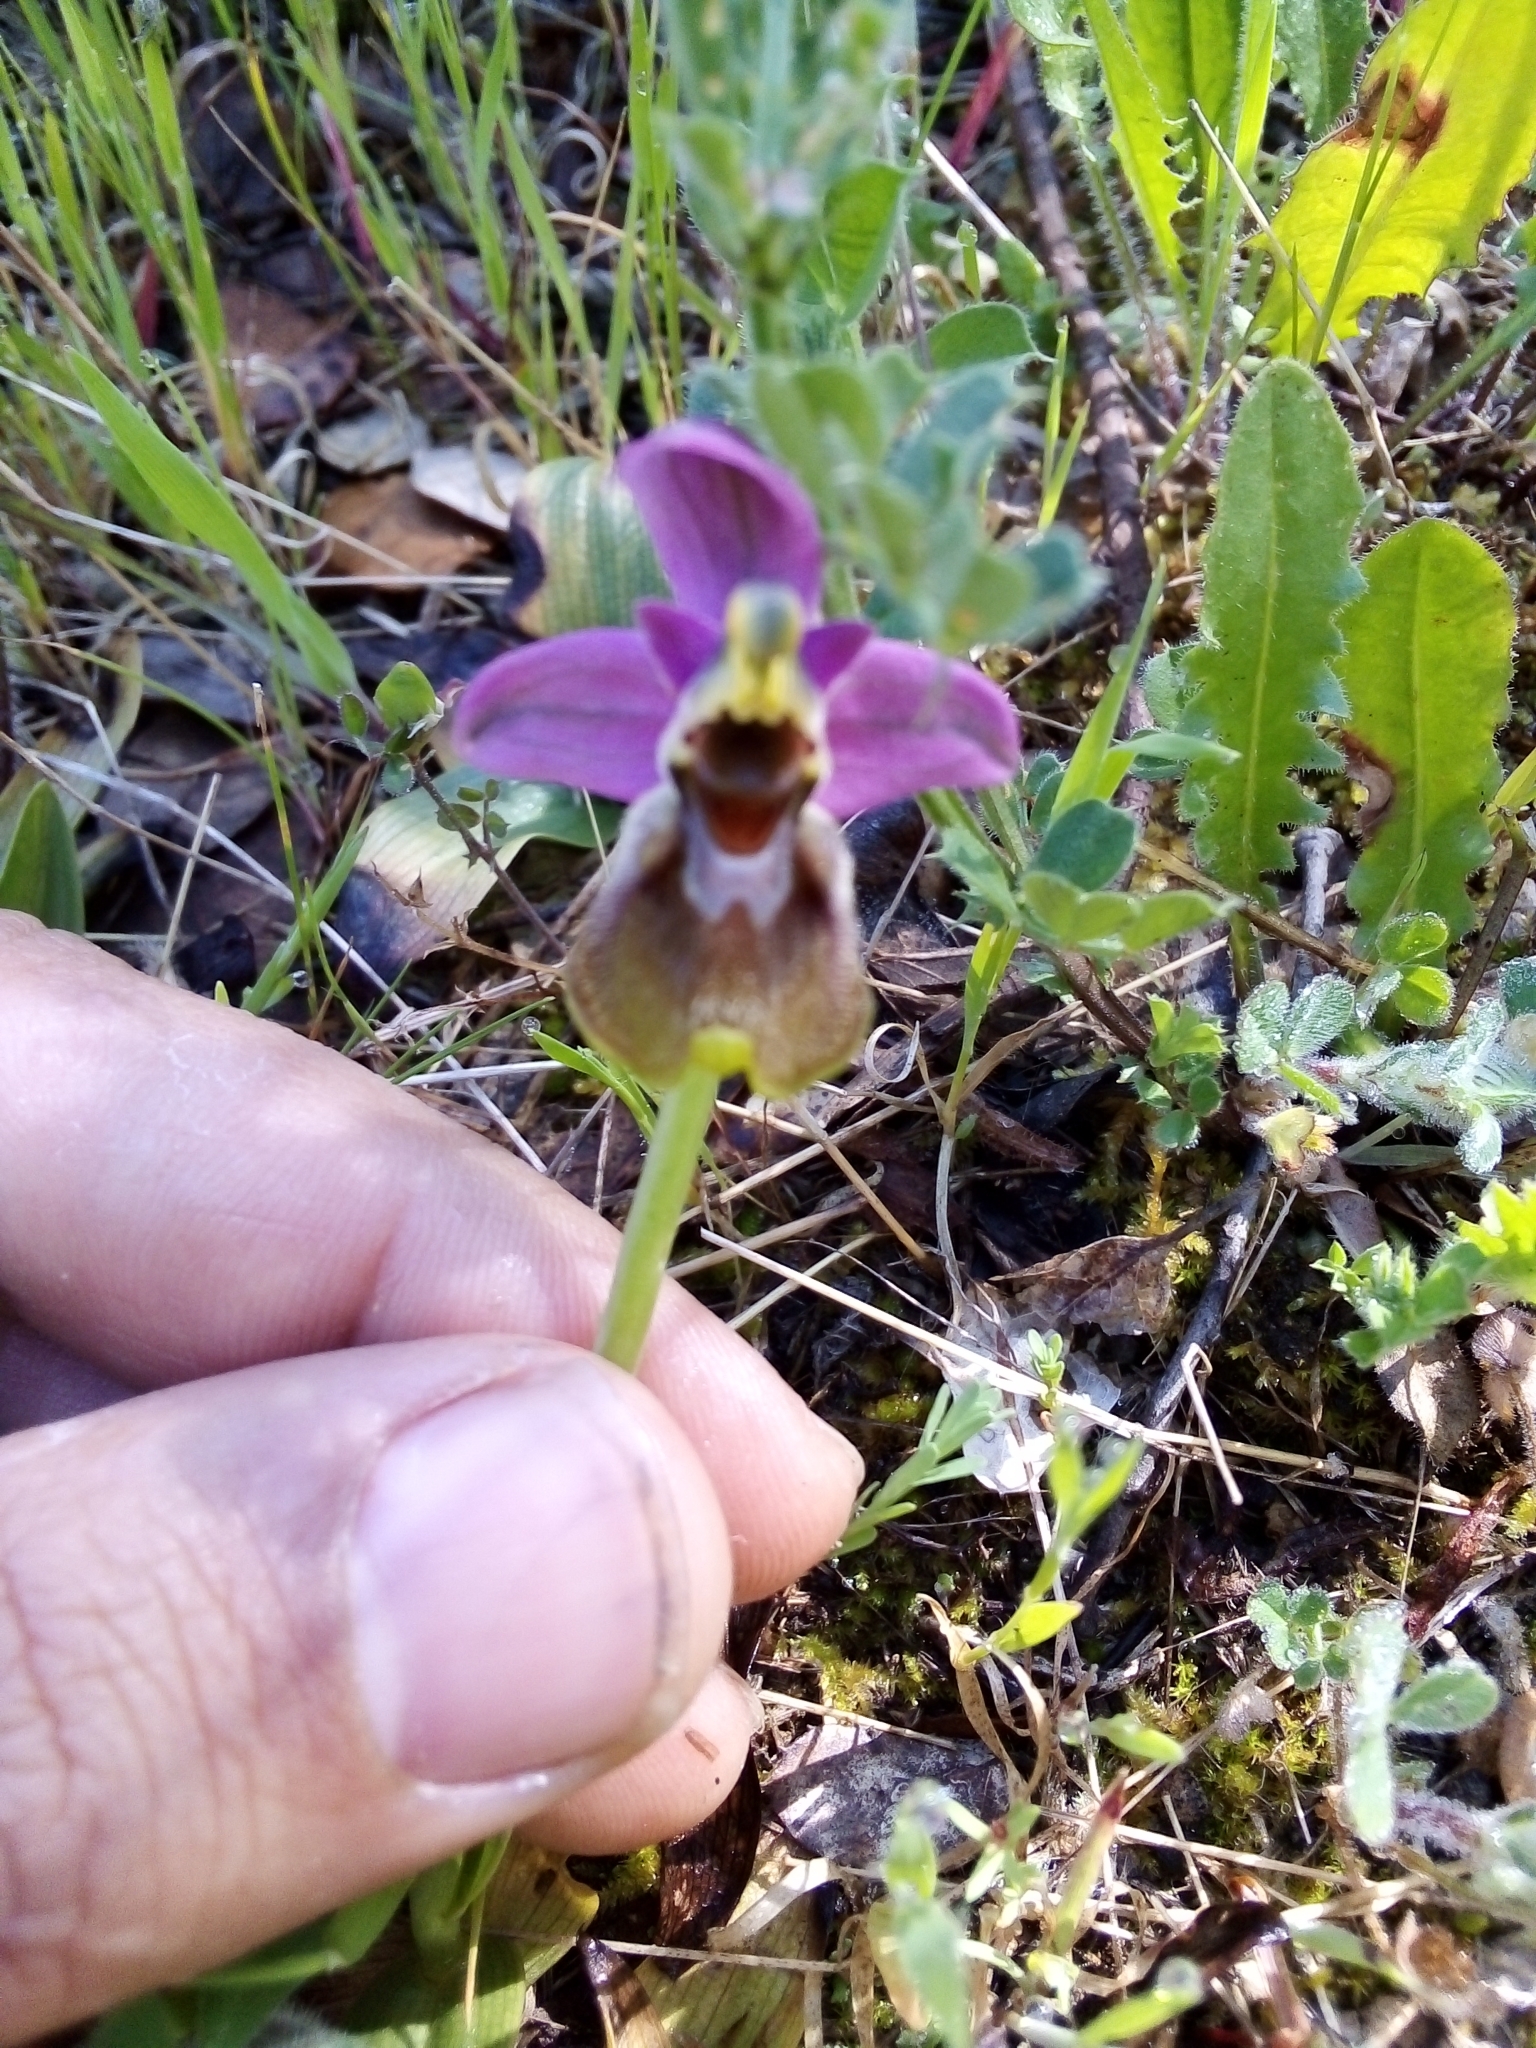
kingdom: Plantae
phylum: Tracheophyta
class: Liliopsida
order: Asparagales
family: Orchidaceae
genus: Ophrys
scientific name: Ophrys tenthredinifera
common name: Sawfly orchid
